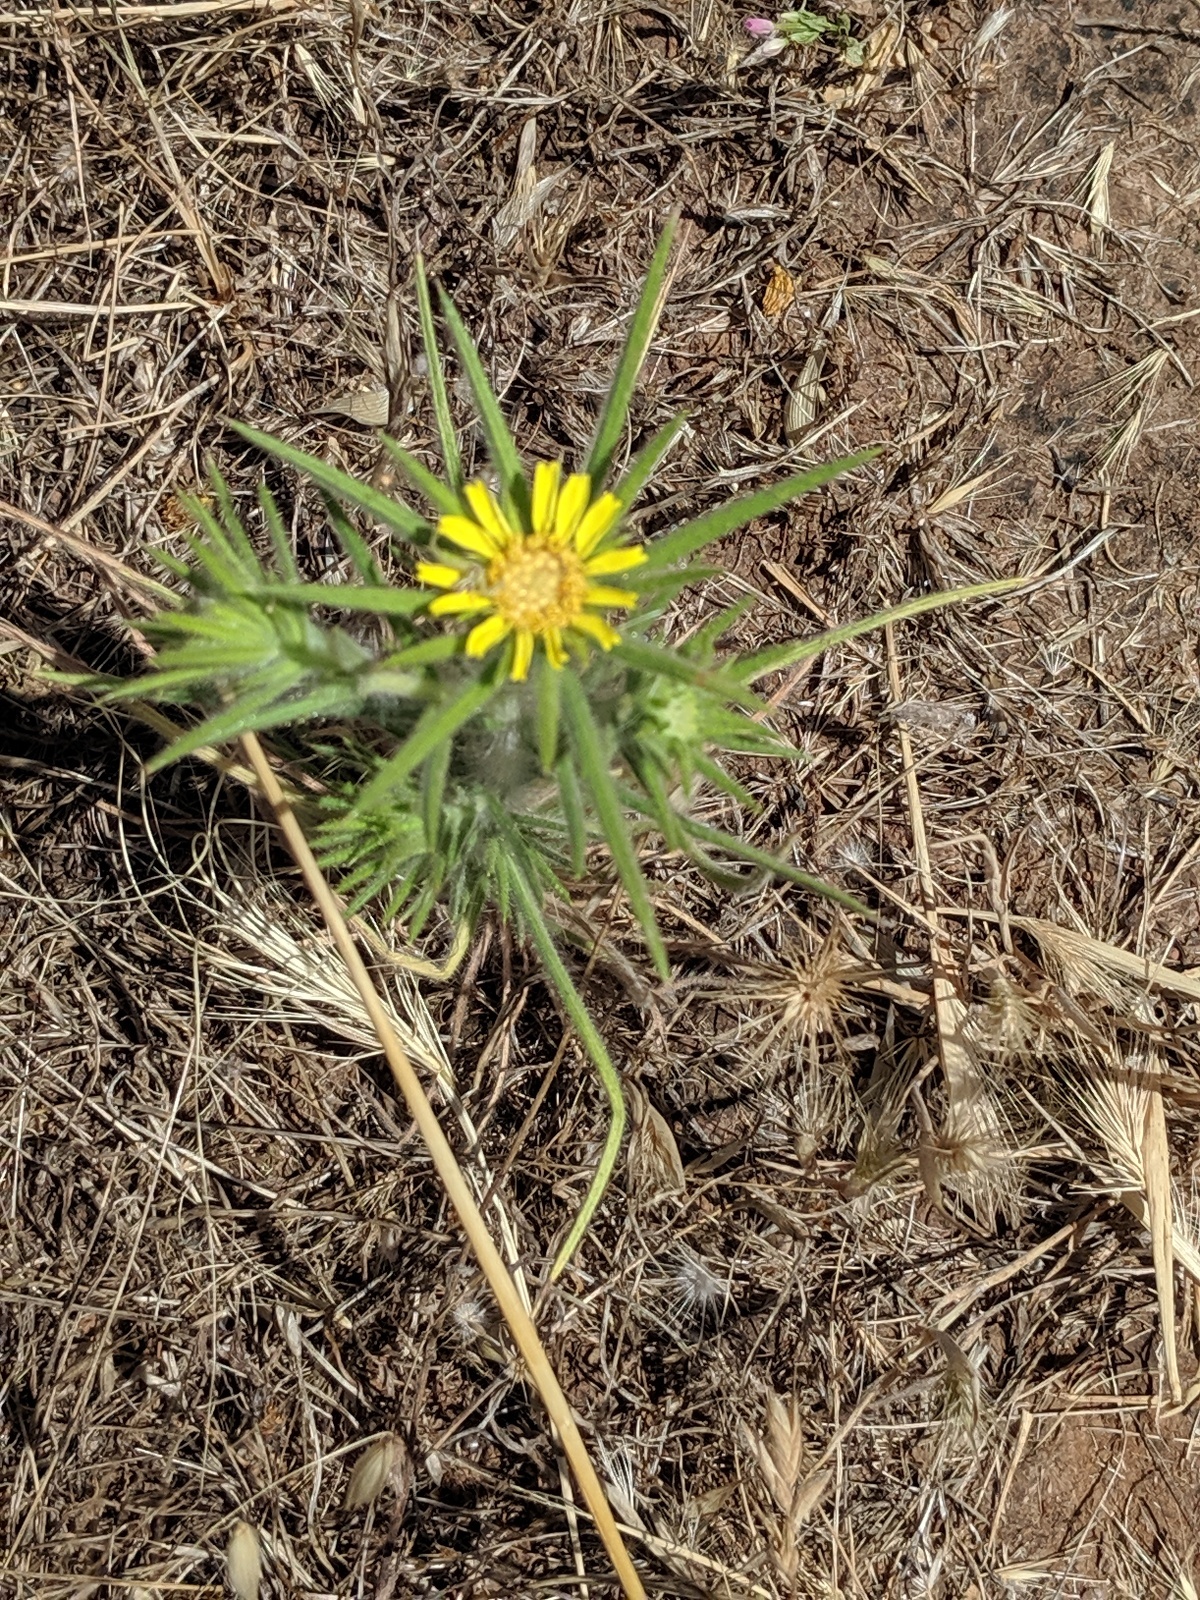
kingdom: Plantae
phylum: Tracheophyta
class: Magnoliopsida
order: Asterales
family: Asteraceae
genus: Centromadia
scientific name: Centromadia fitchii
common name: Fitch's spikeweed
